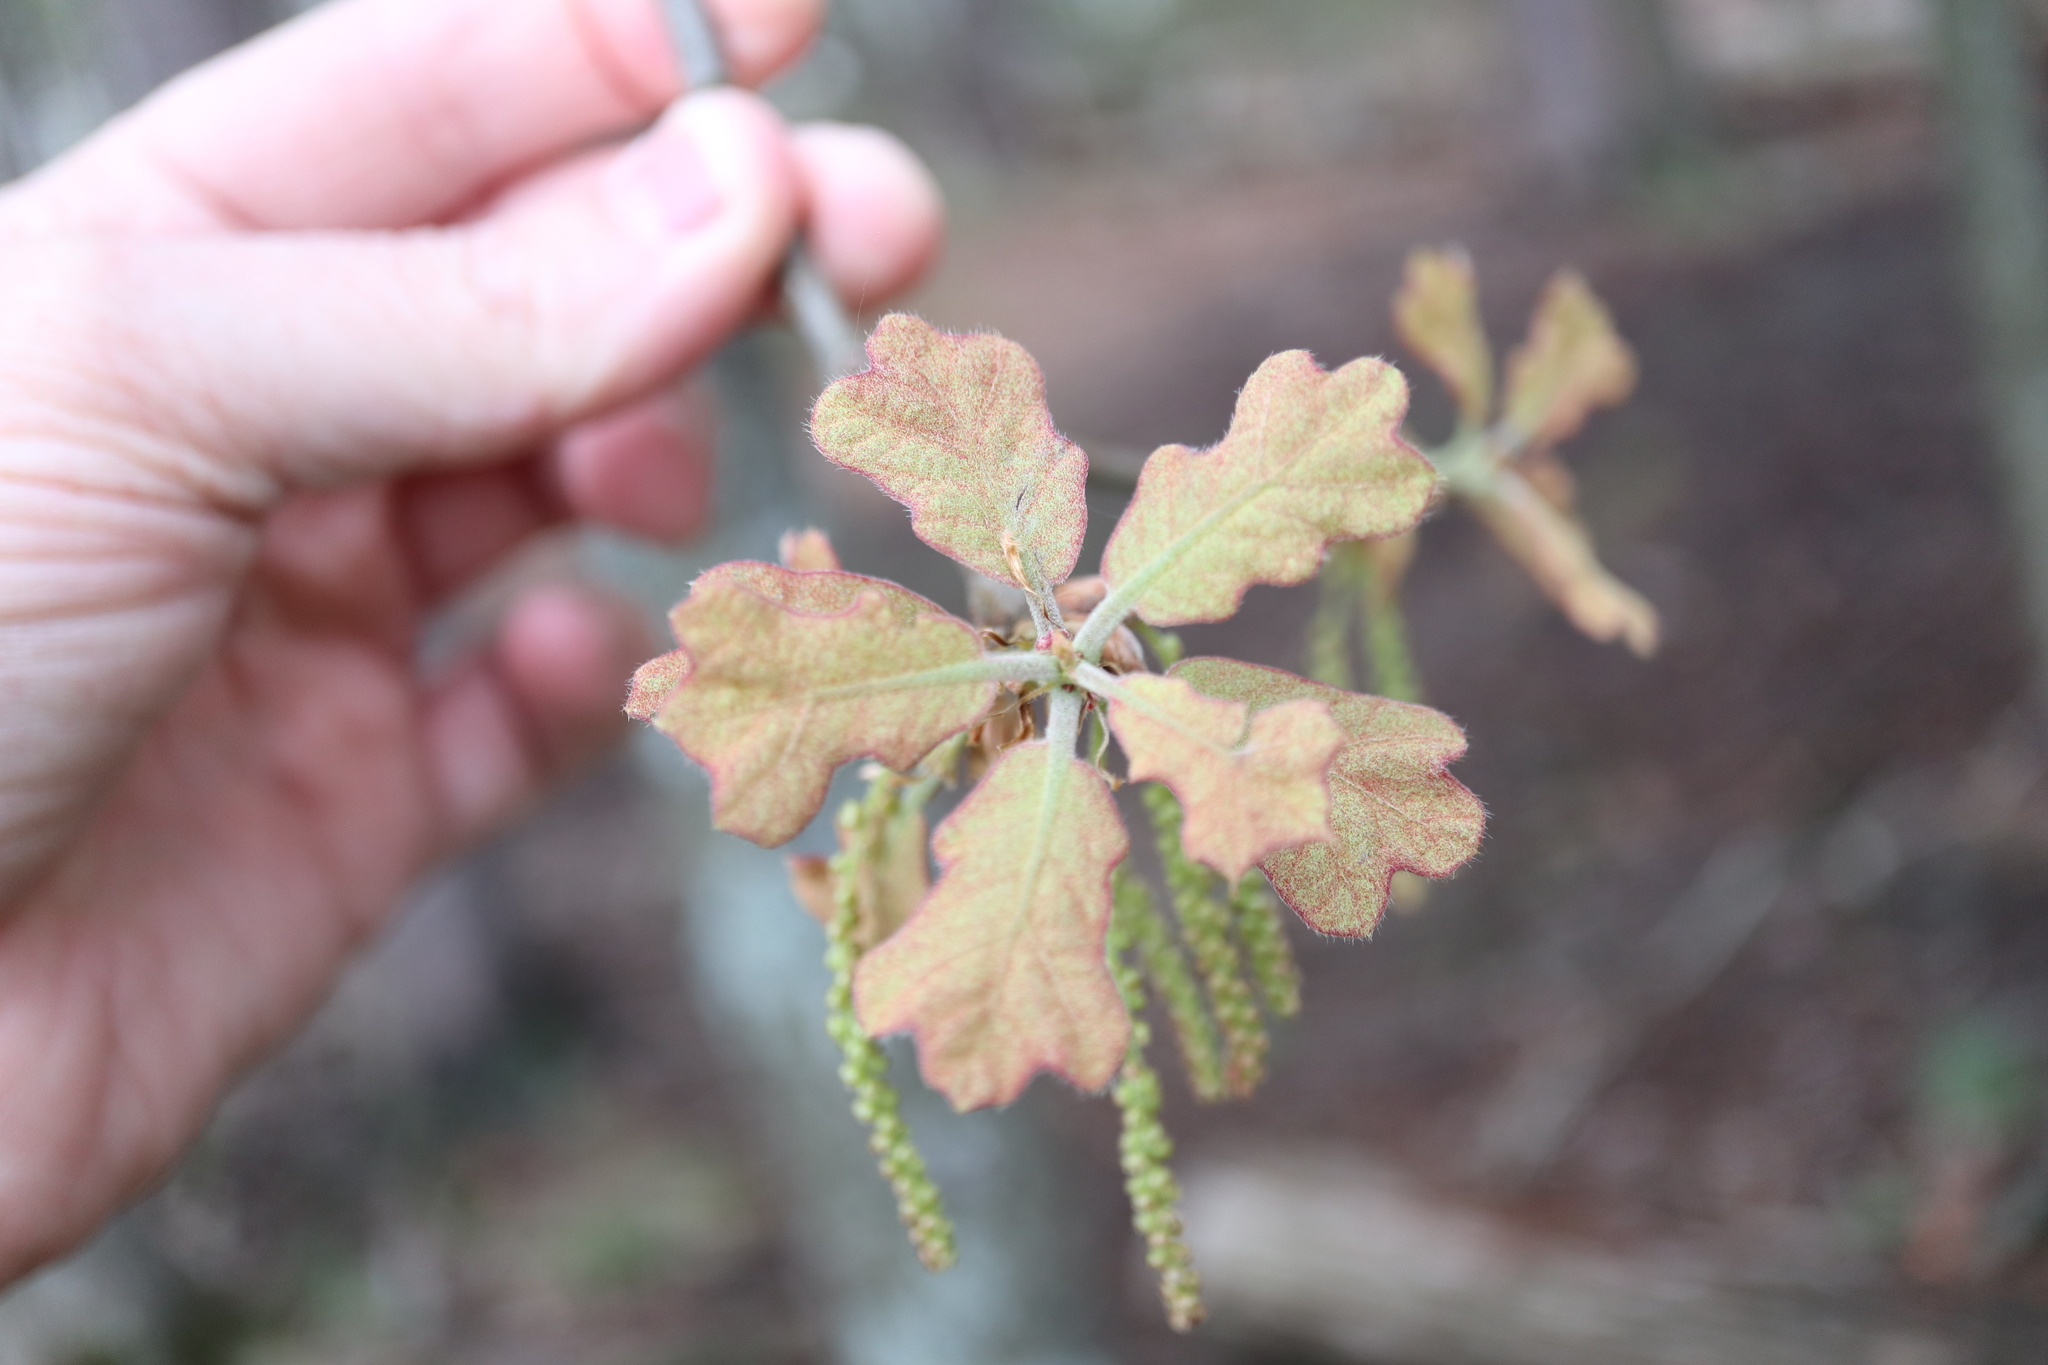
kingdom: Plantae
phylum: Tracheophyta
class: Magnoliopsida
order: Fagales
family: Fagaceae
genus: Quercus
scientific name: Quercus marilandica
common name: Blackjack oak
